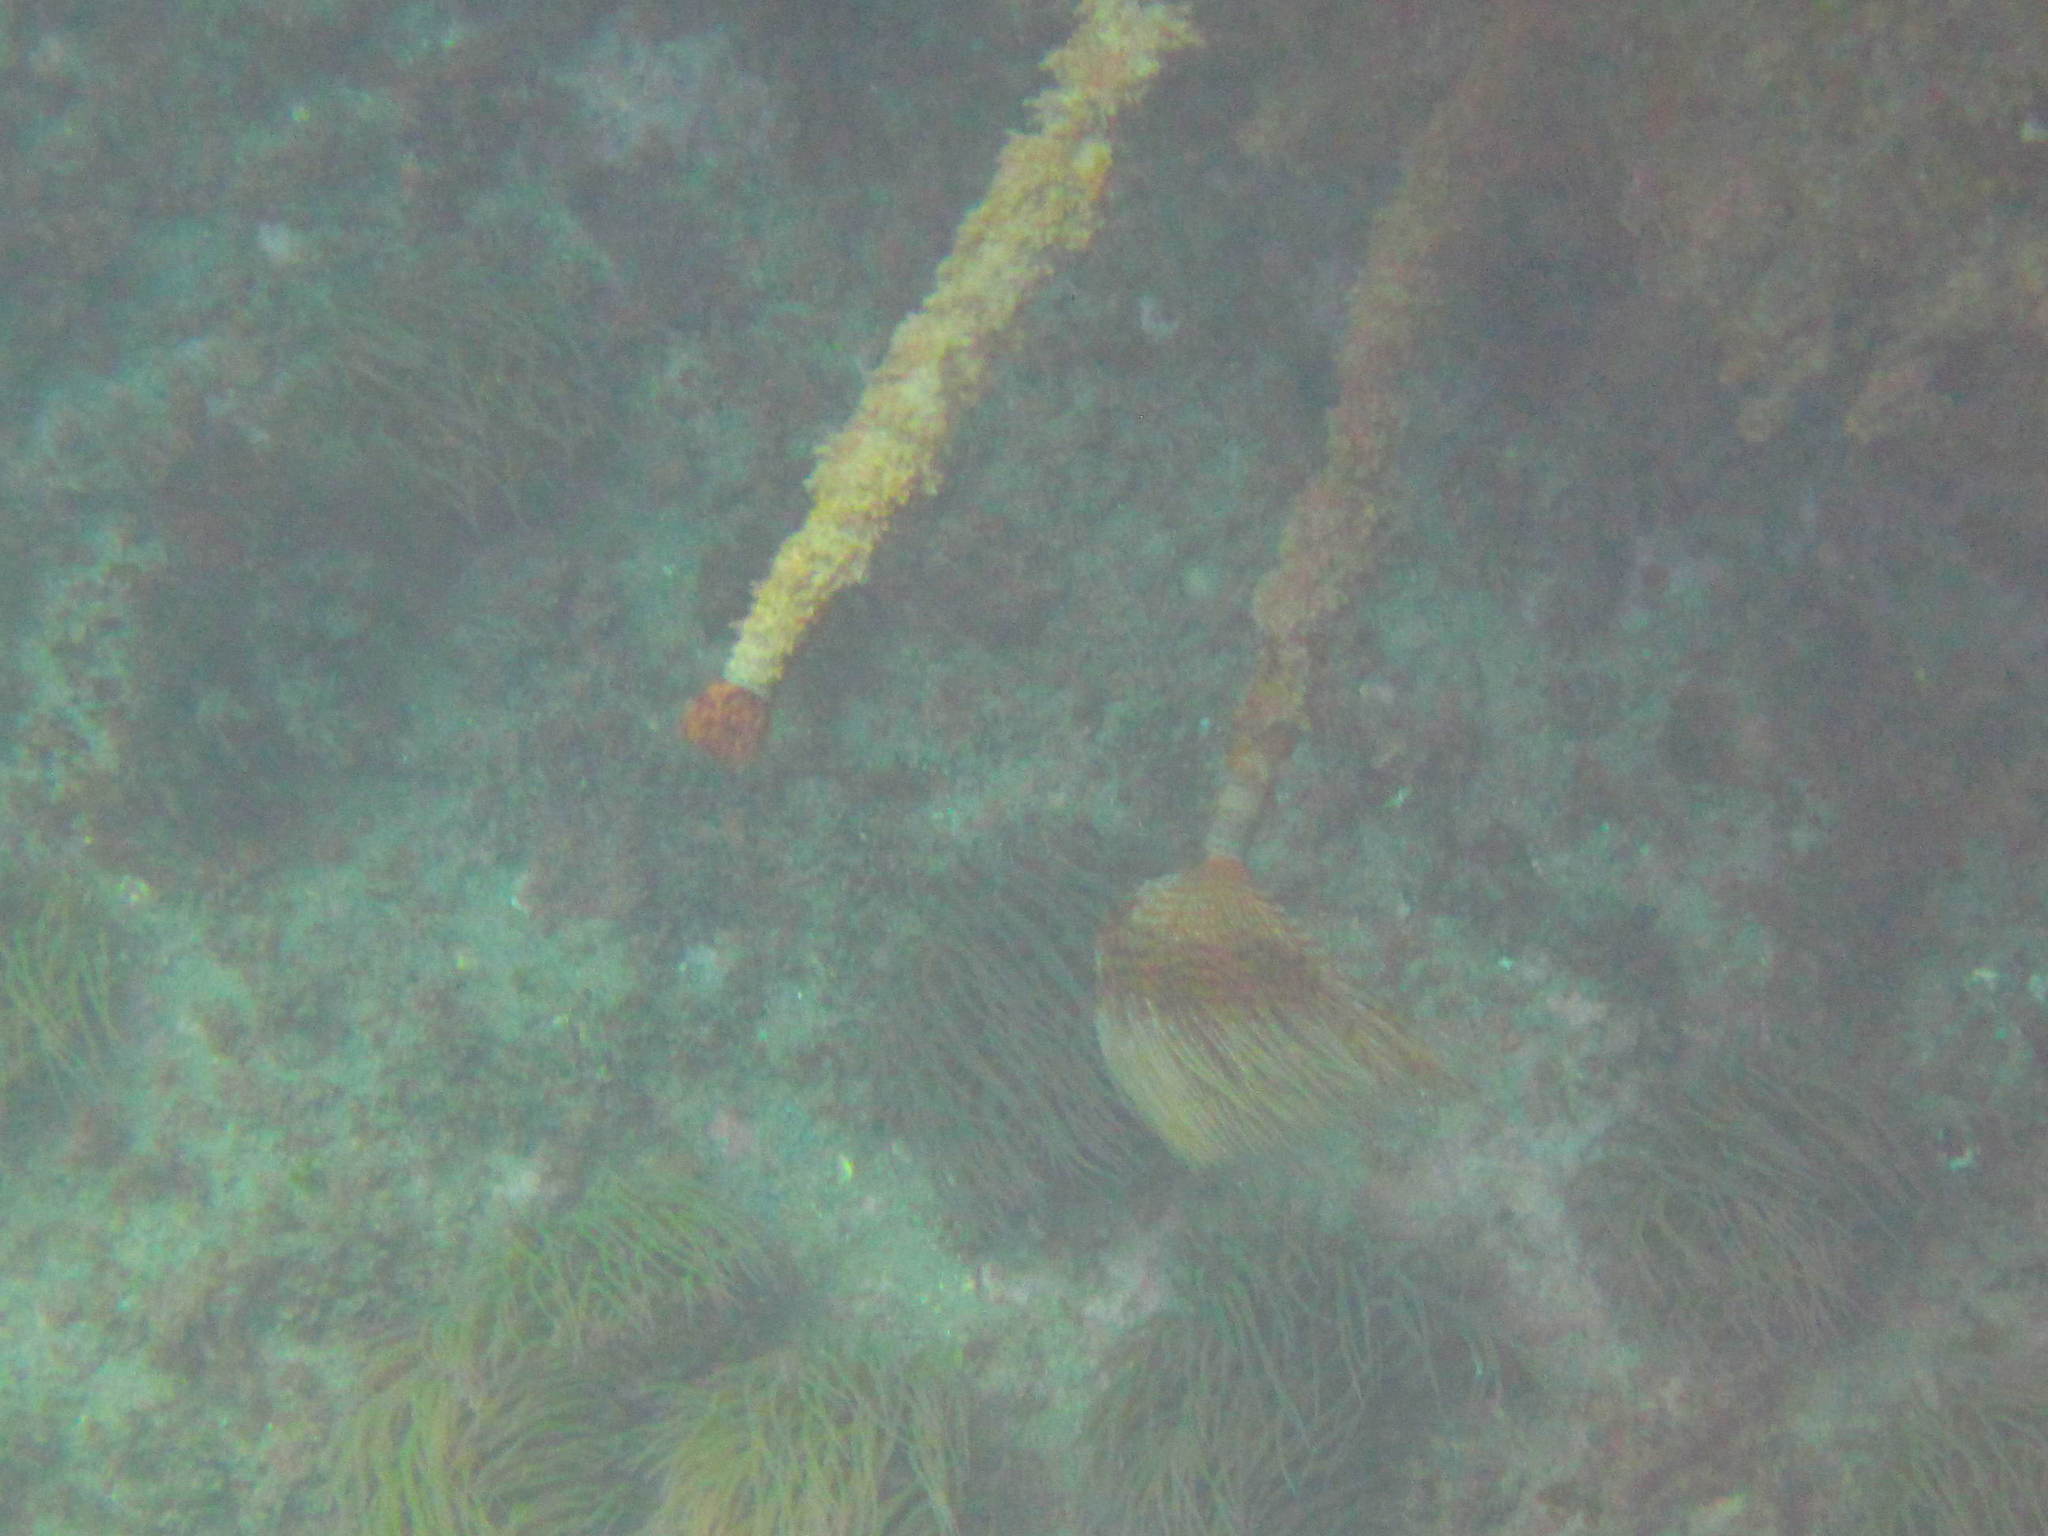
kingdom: Animalia
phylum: Annelida
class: Polychaeta
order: Sabellida
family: Sabellidae
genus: Sabella
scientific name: Sabella spallanzanii
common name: Feather duster worm
